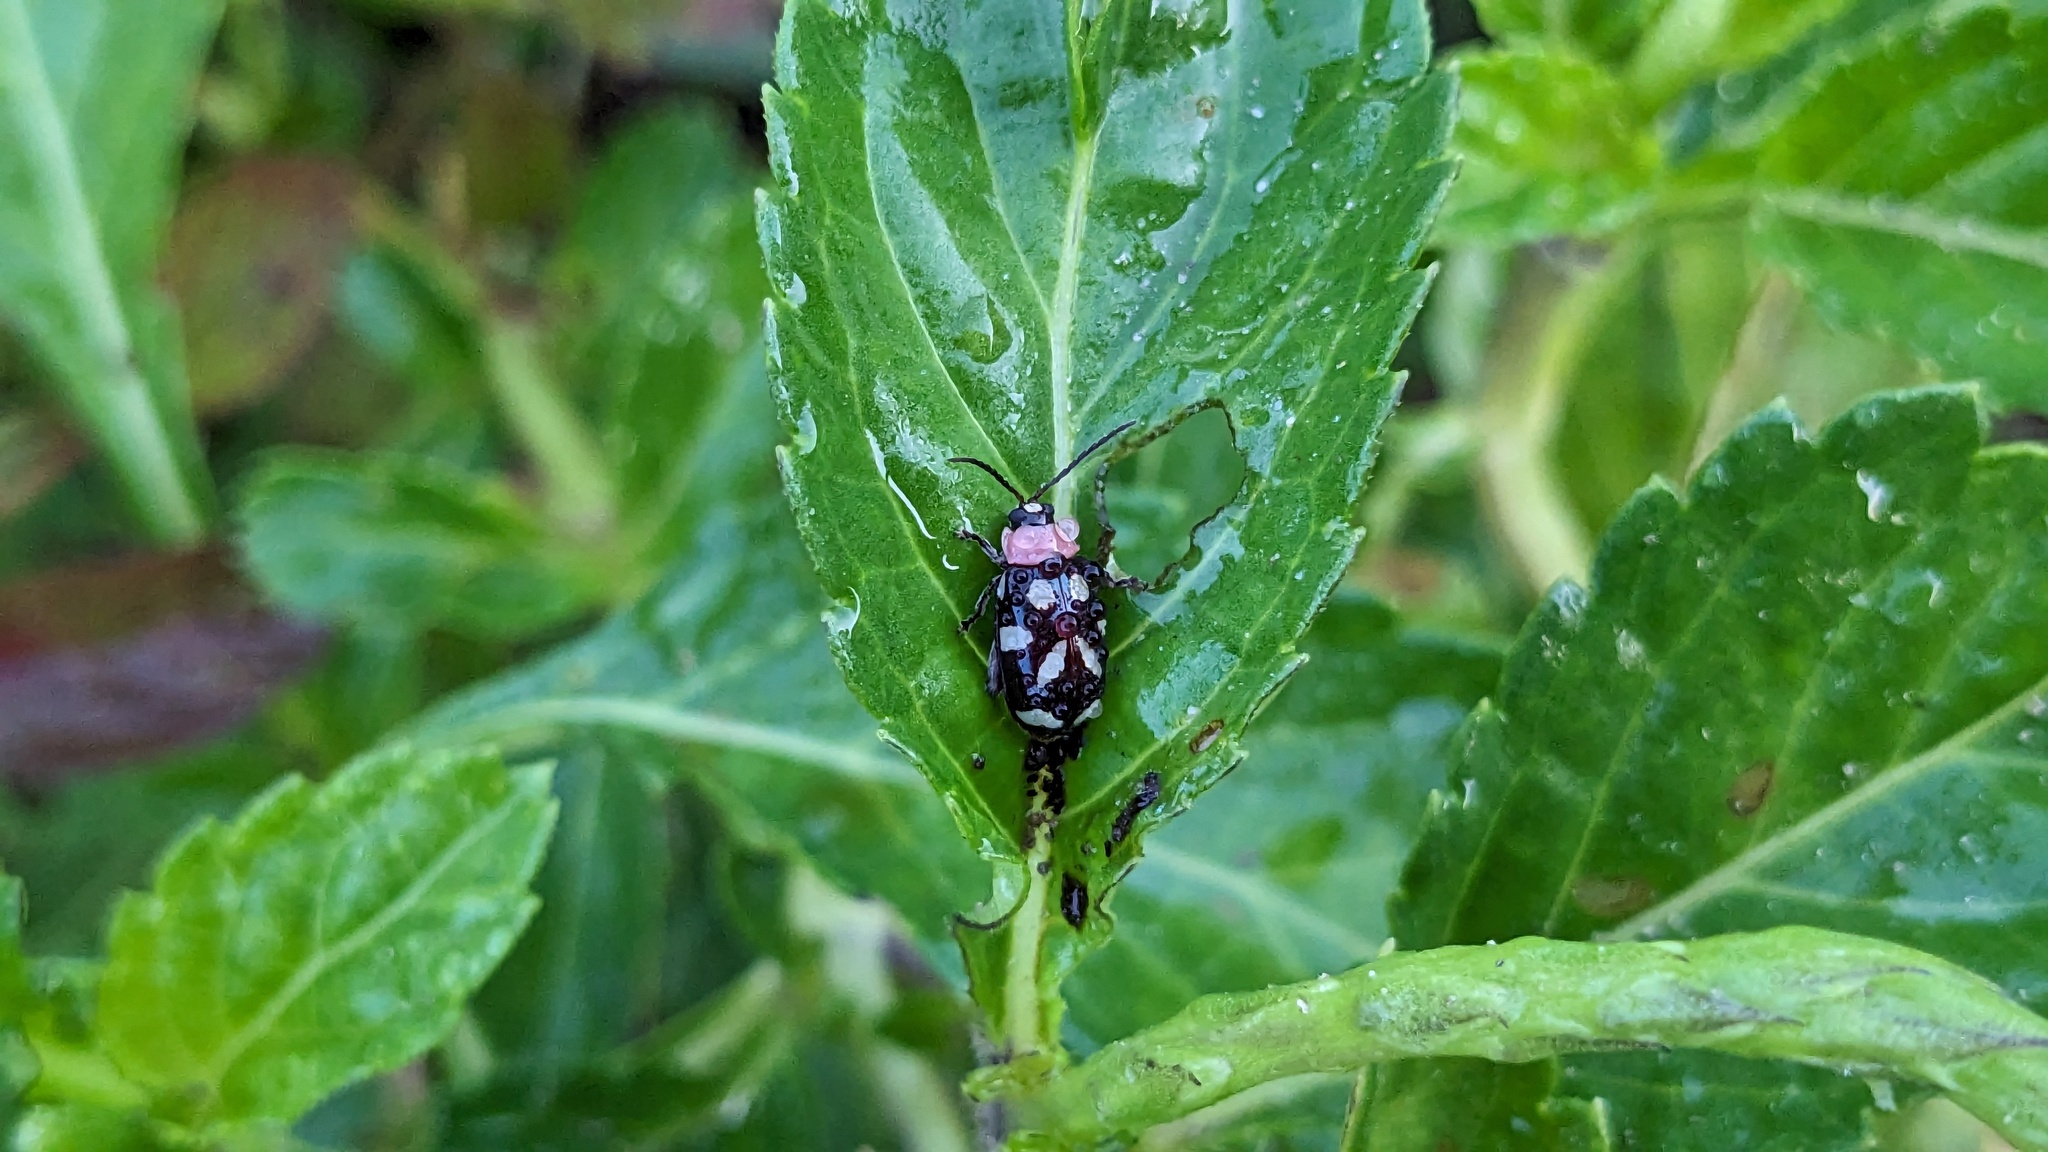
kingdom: Animalia
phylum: Arthropoda
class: Insecta
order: Coleoptera
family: Chrysomelidae
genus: Omophoita
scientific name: Omophoita albicollis
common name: Toensmeier's flea beetle
